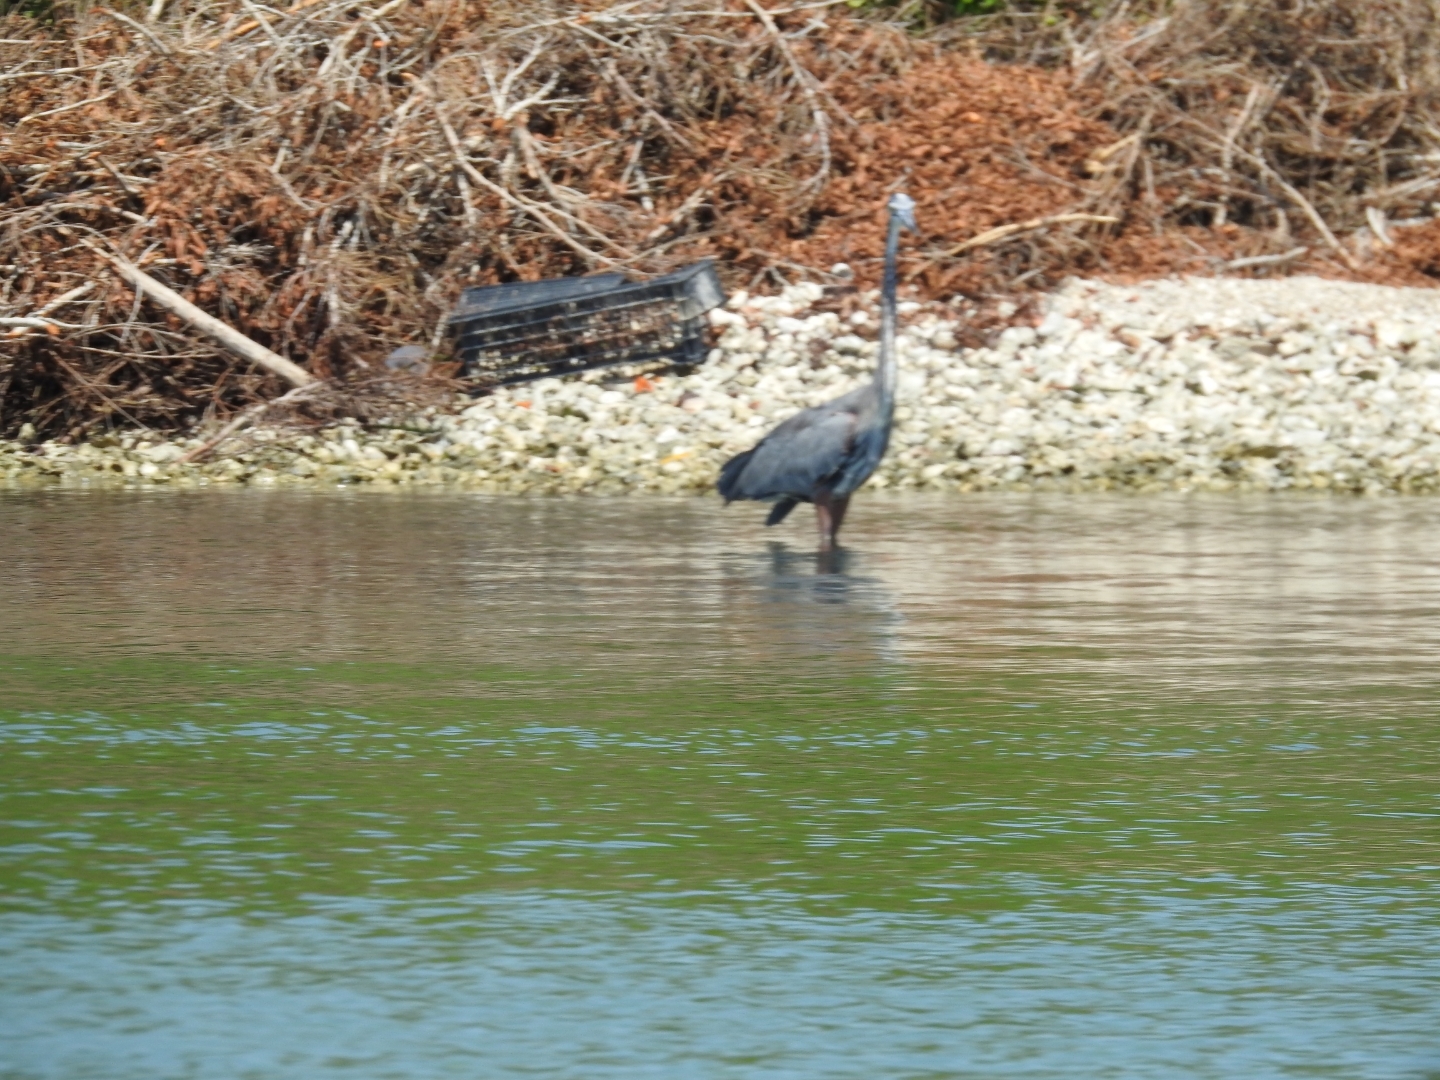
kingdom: Animalia
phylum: Chordata
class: Aves
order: Pelecaniformes
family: Ardeidae
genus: Ardea
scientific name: Ardea herodias
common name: Great blue heron
